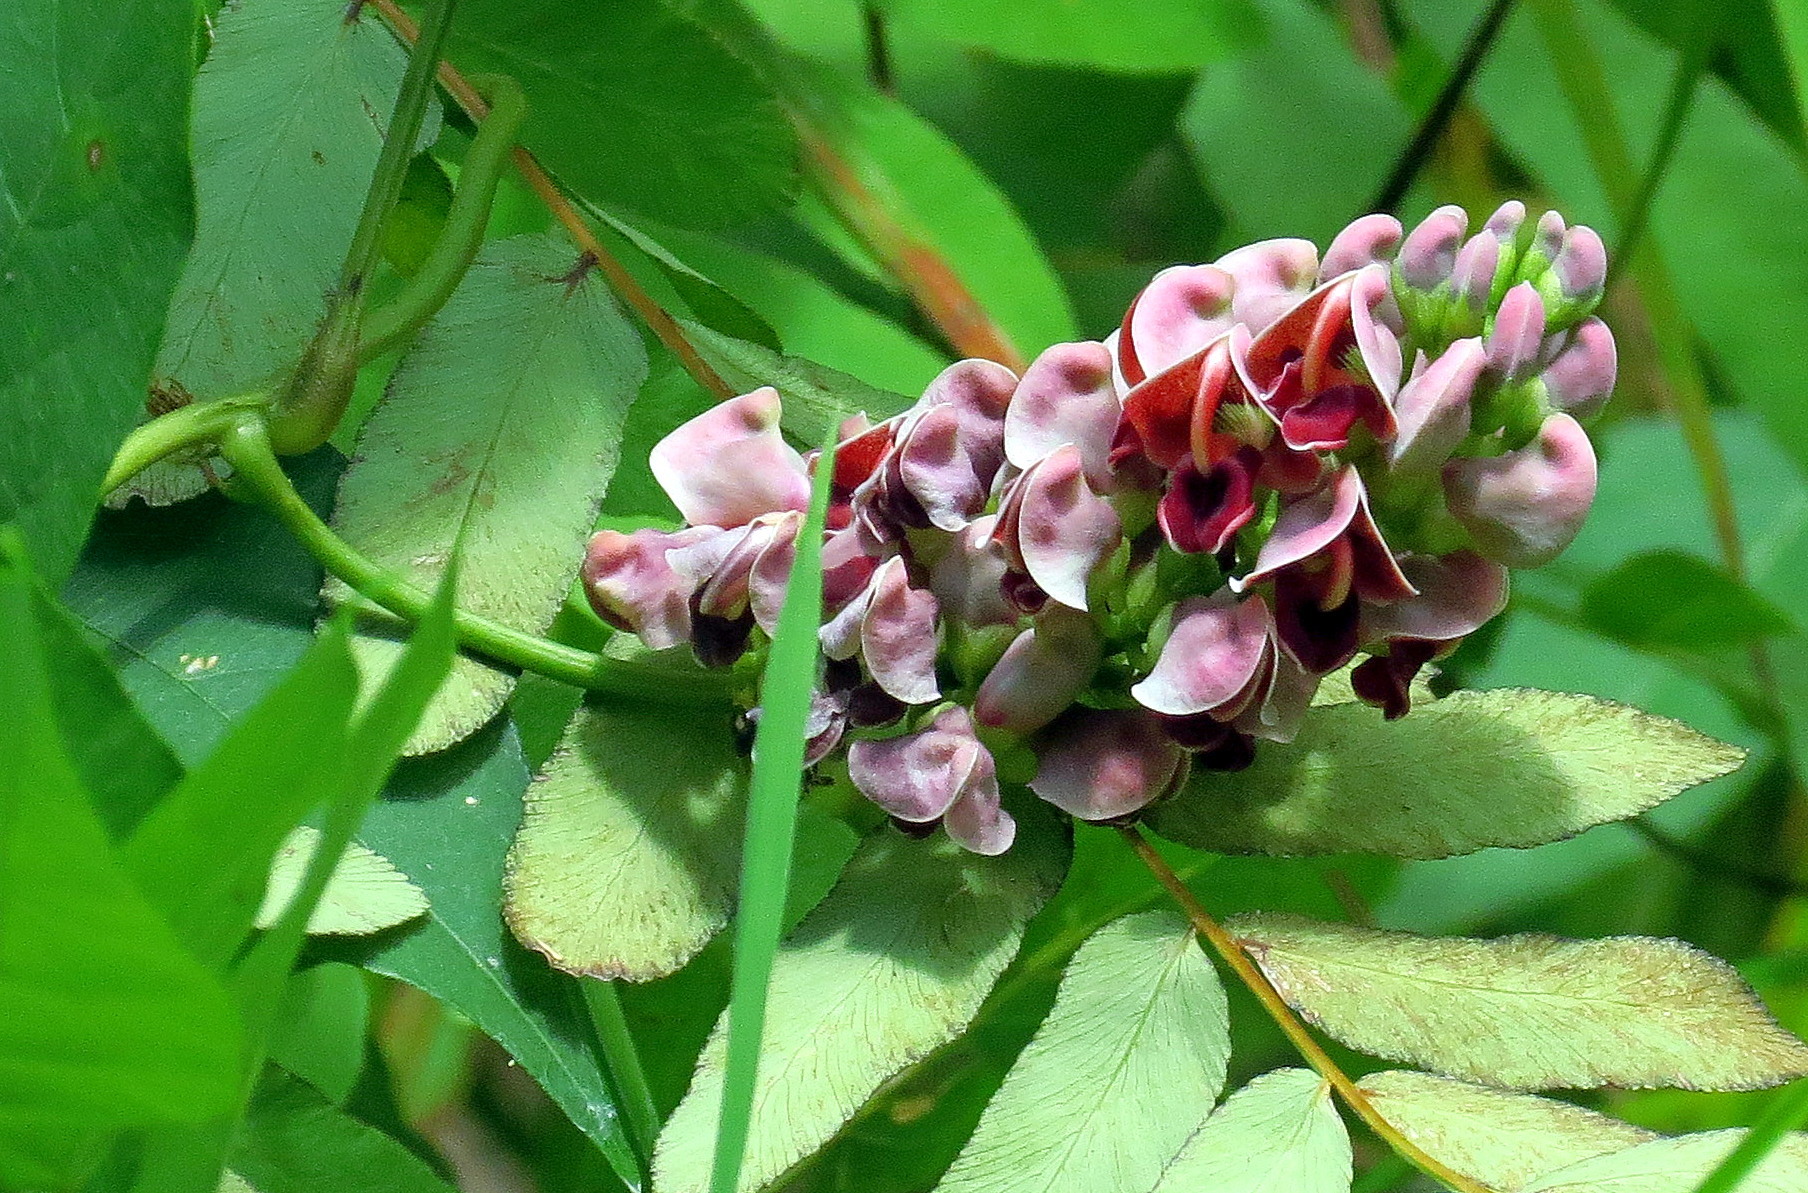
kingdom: Plantae
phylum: Tracheophyta
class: Magnoliopsida
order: Fabales
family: Fabaceae
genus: Apios
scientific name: Apios americana
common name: American potato-bean
